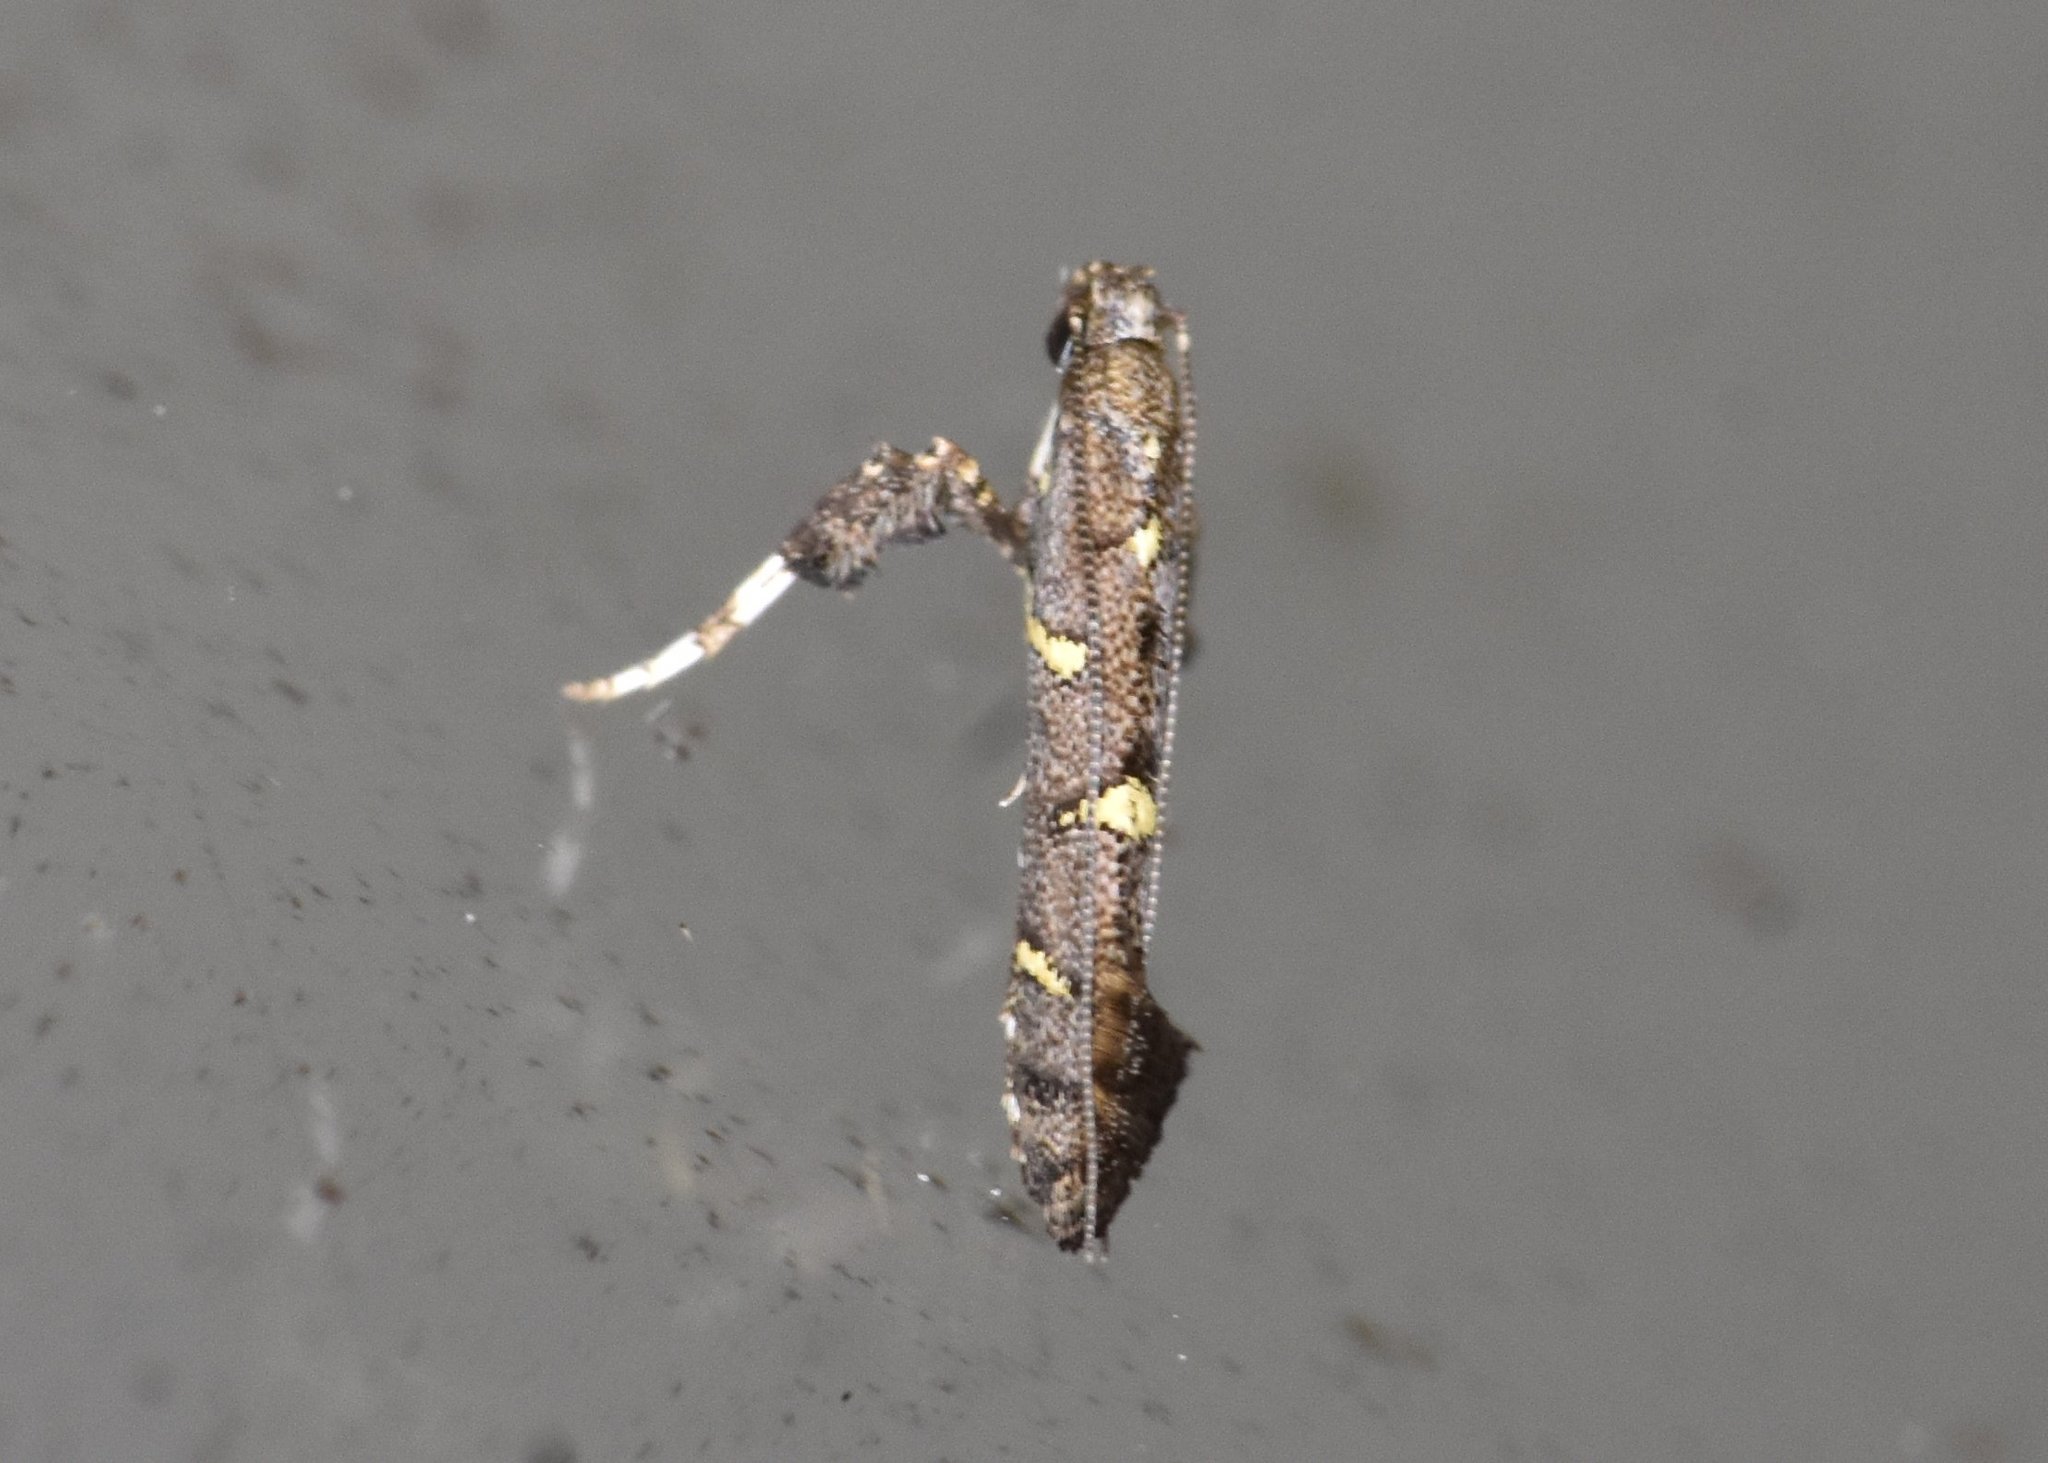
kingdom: Animalia
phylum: Arthropoda
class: Insecta
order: Lepidoptera
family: Gracillariidae
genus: Caloptilia
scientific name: Caloptilia triadicae
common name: Tallow leaf roller
